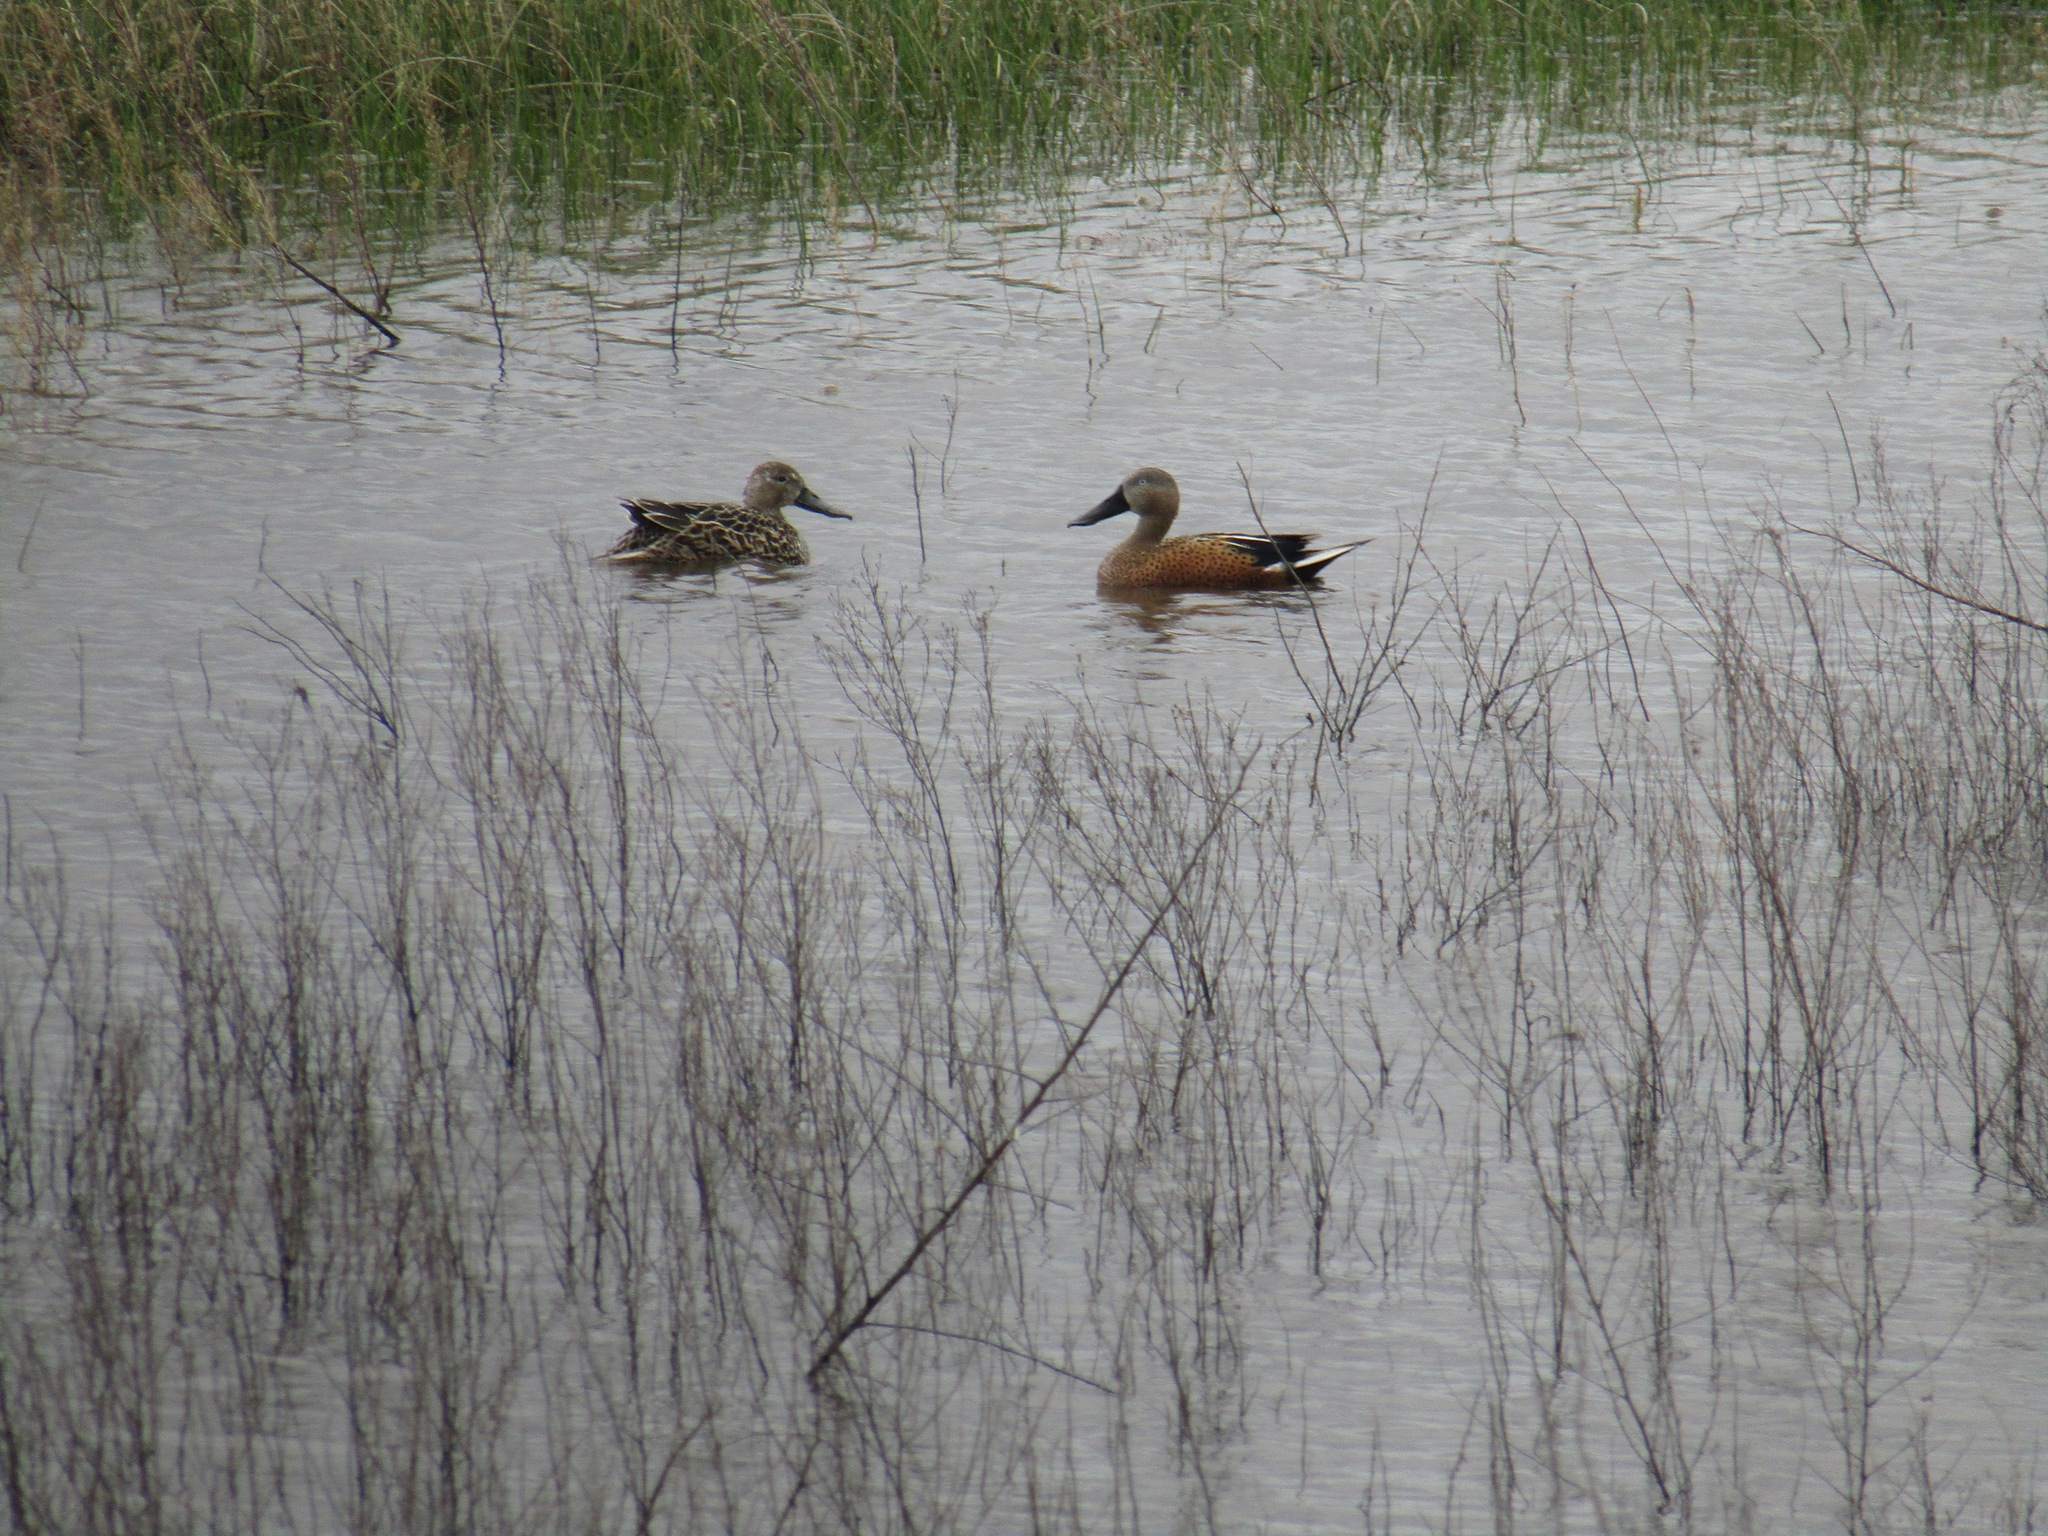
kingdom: Animalia
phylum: Chordata
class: Aves
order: Anseriformes
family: Anatidae
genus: Spatula
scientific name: Spatula platalea
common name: Red shoveler
